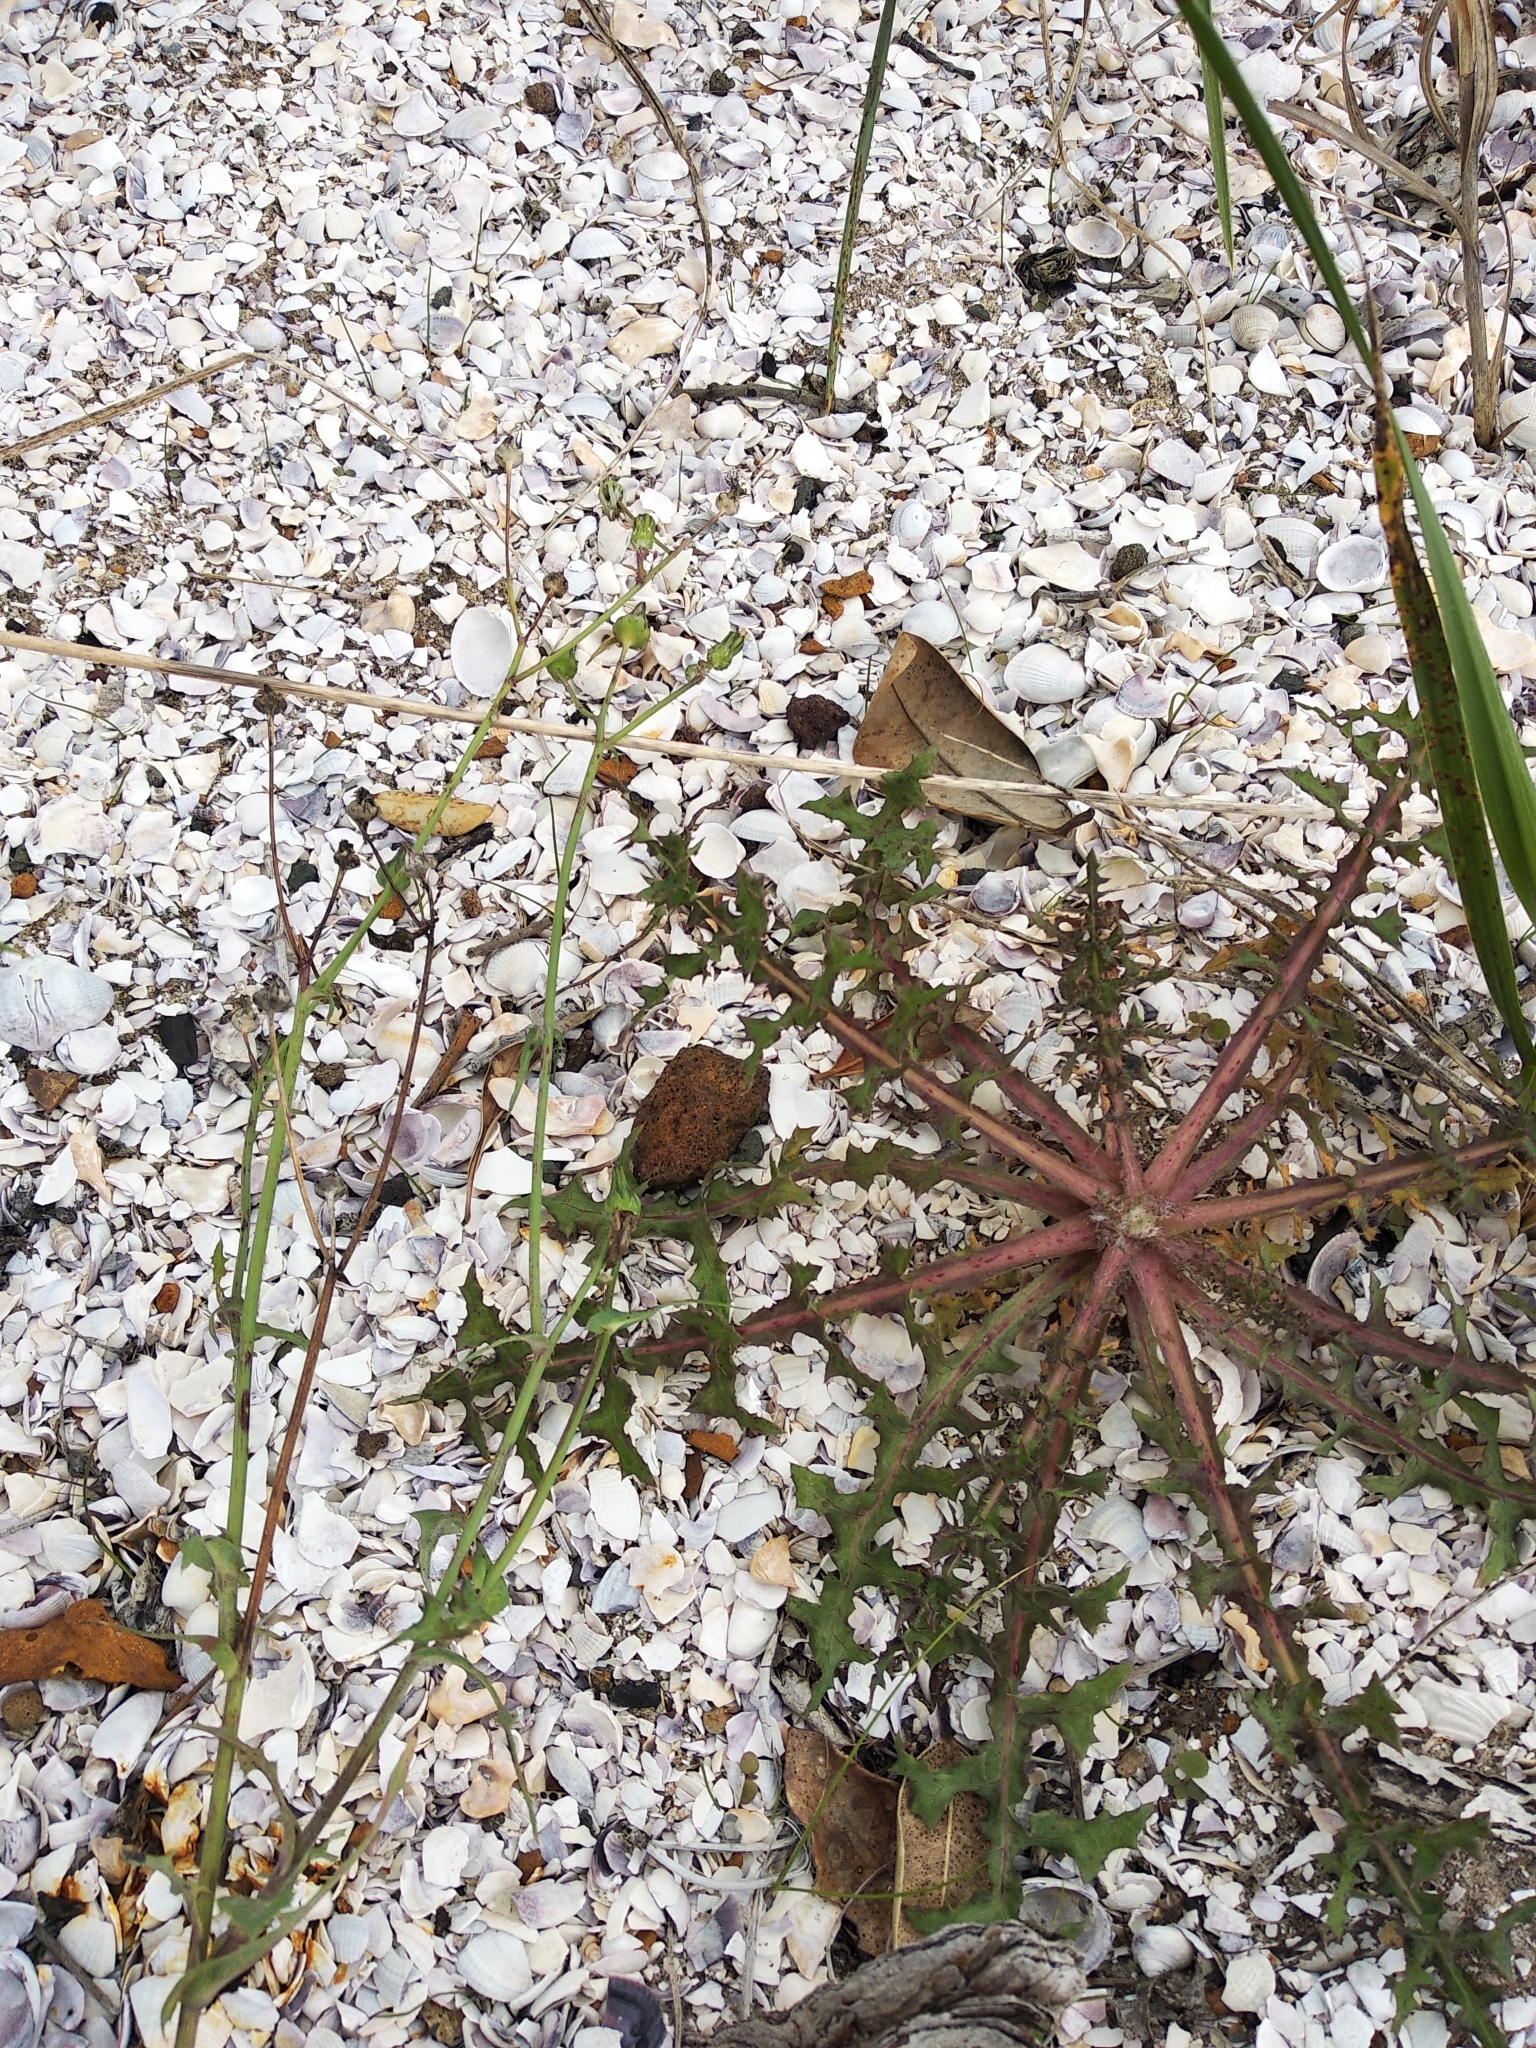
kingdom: Plantae
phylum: Tracheophyta
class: Magnoliopsida
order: Asterales
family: Asteraceae
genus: Sonchus
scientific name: Sonchus oleraceus
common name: Common sowthistle
